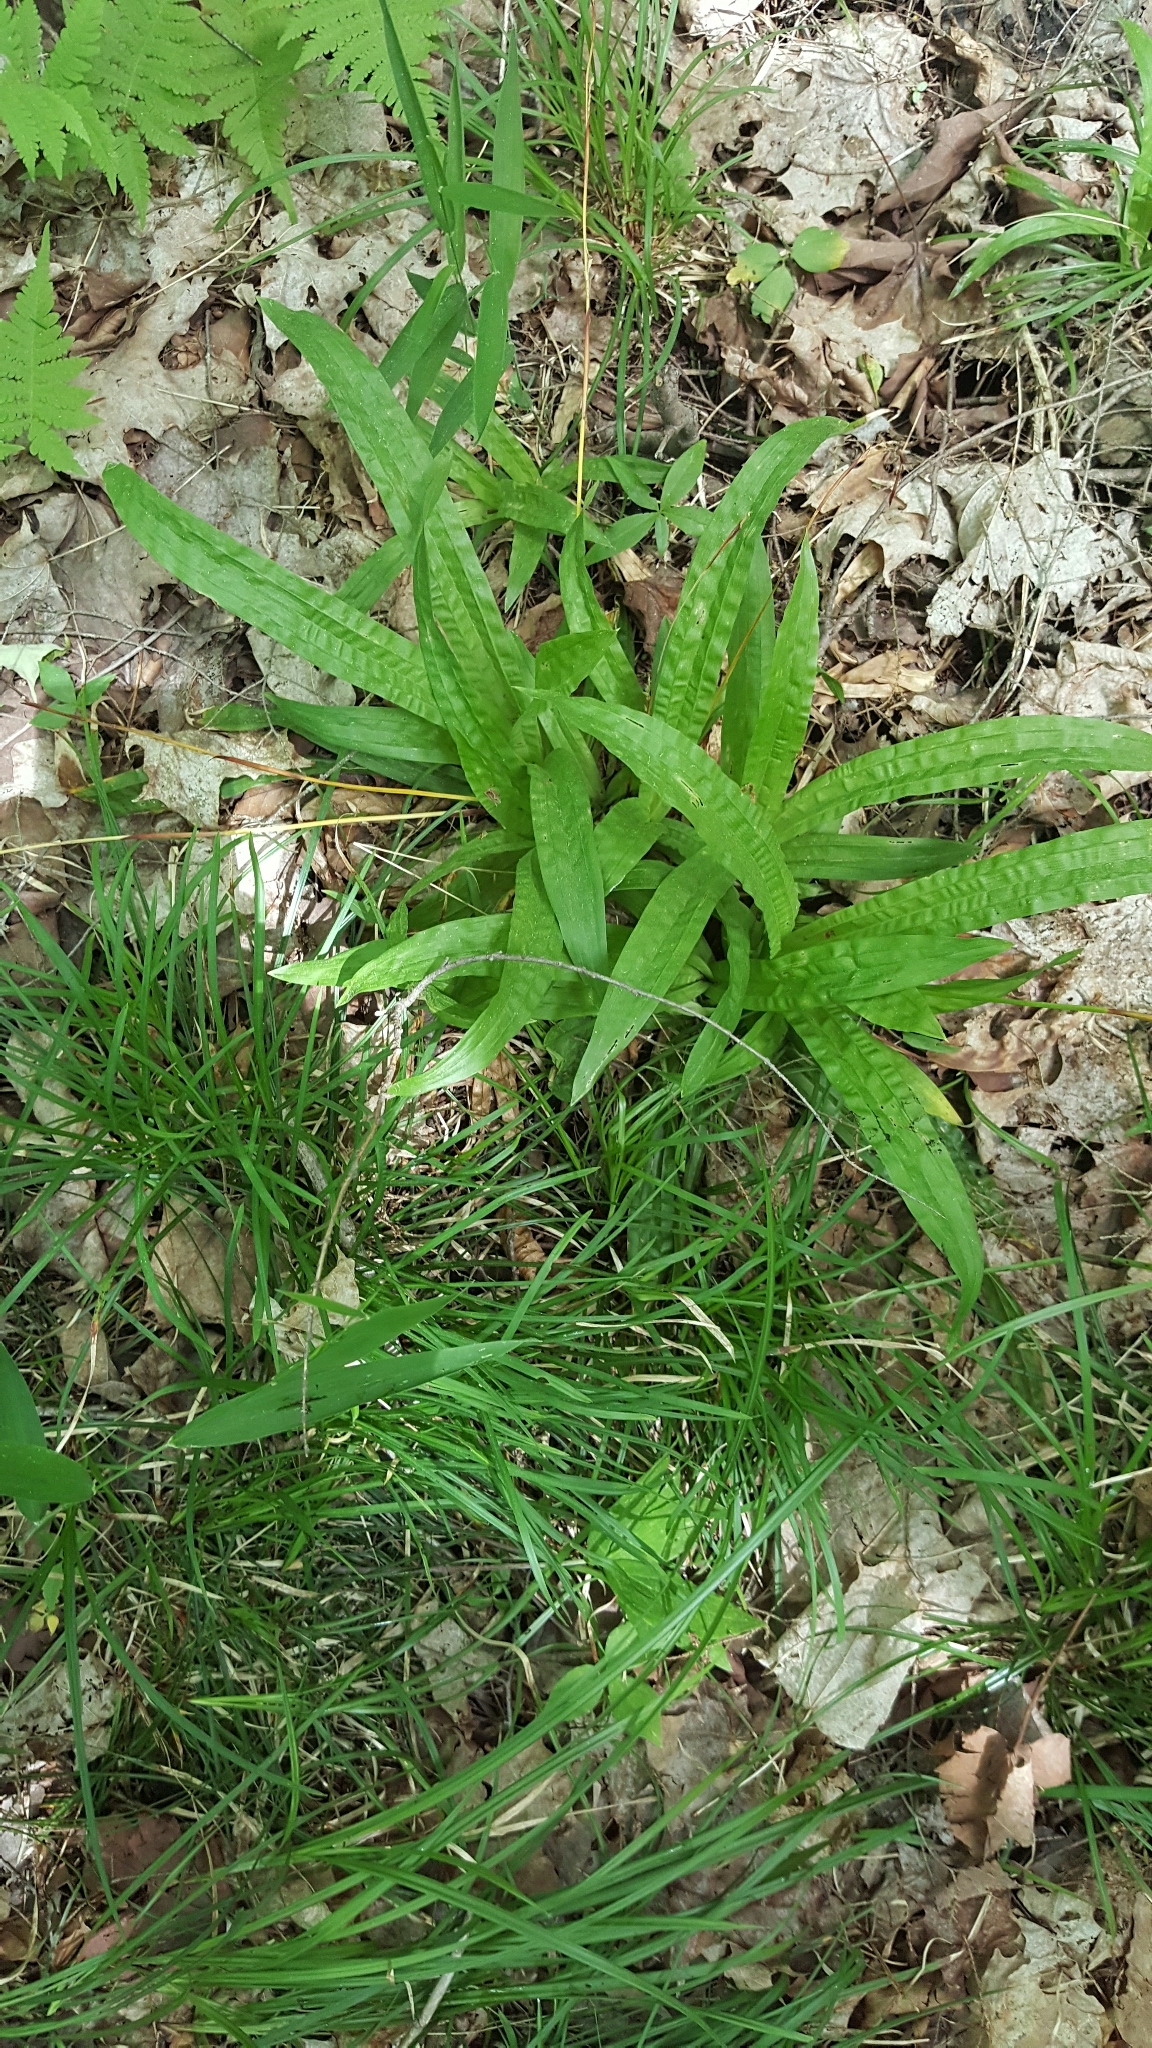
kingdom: Plantae
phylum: Tracheophyta
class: Liliopsida
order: Poales
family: Cyperaceae
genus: Carex
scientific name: Carex plantaginea
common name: Plantain-leaved sedge
